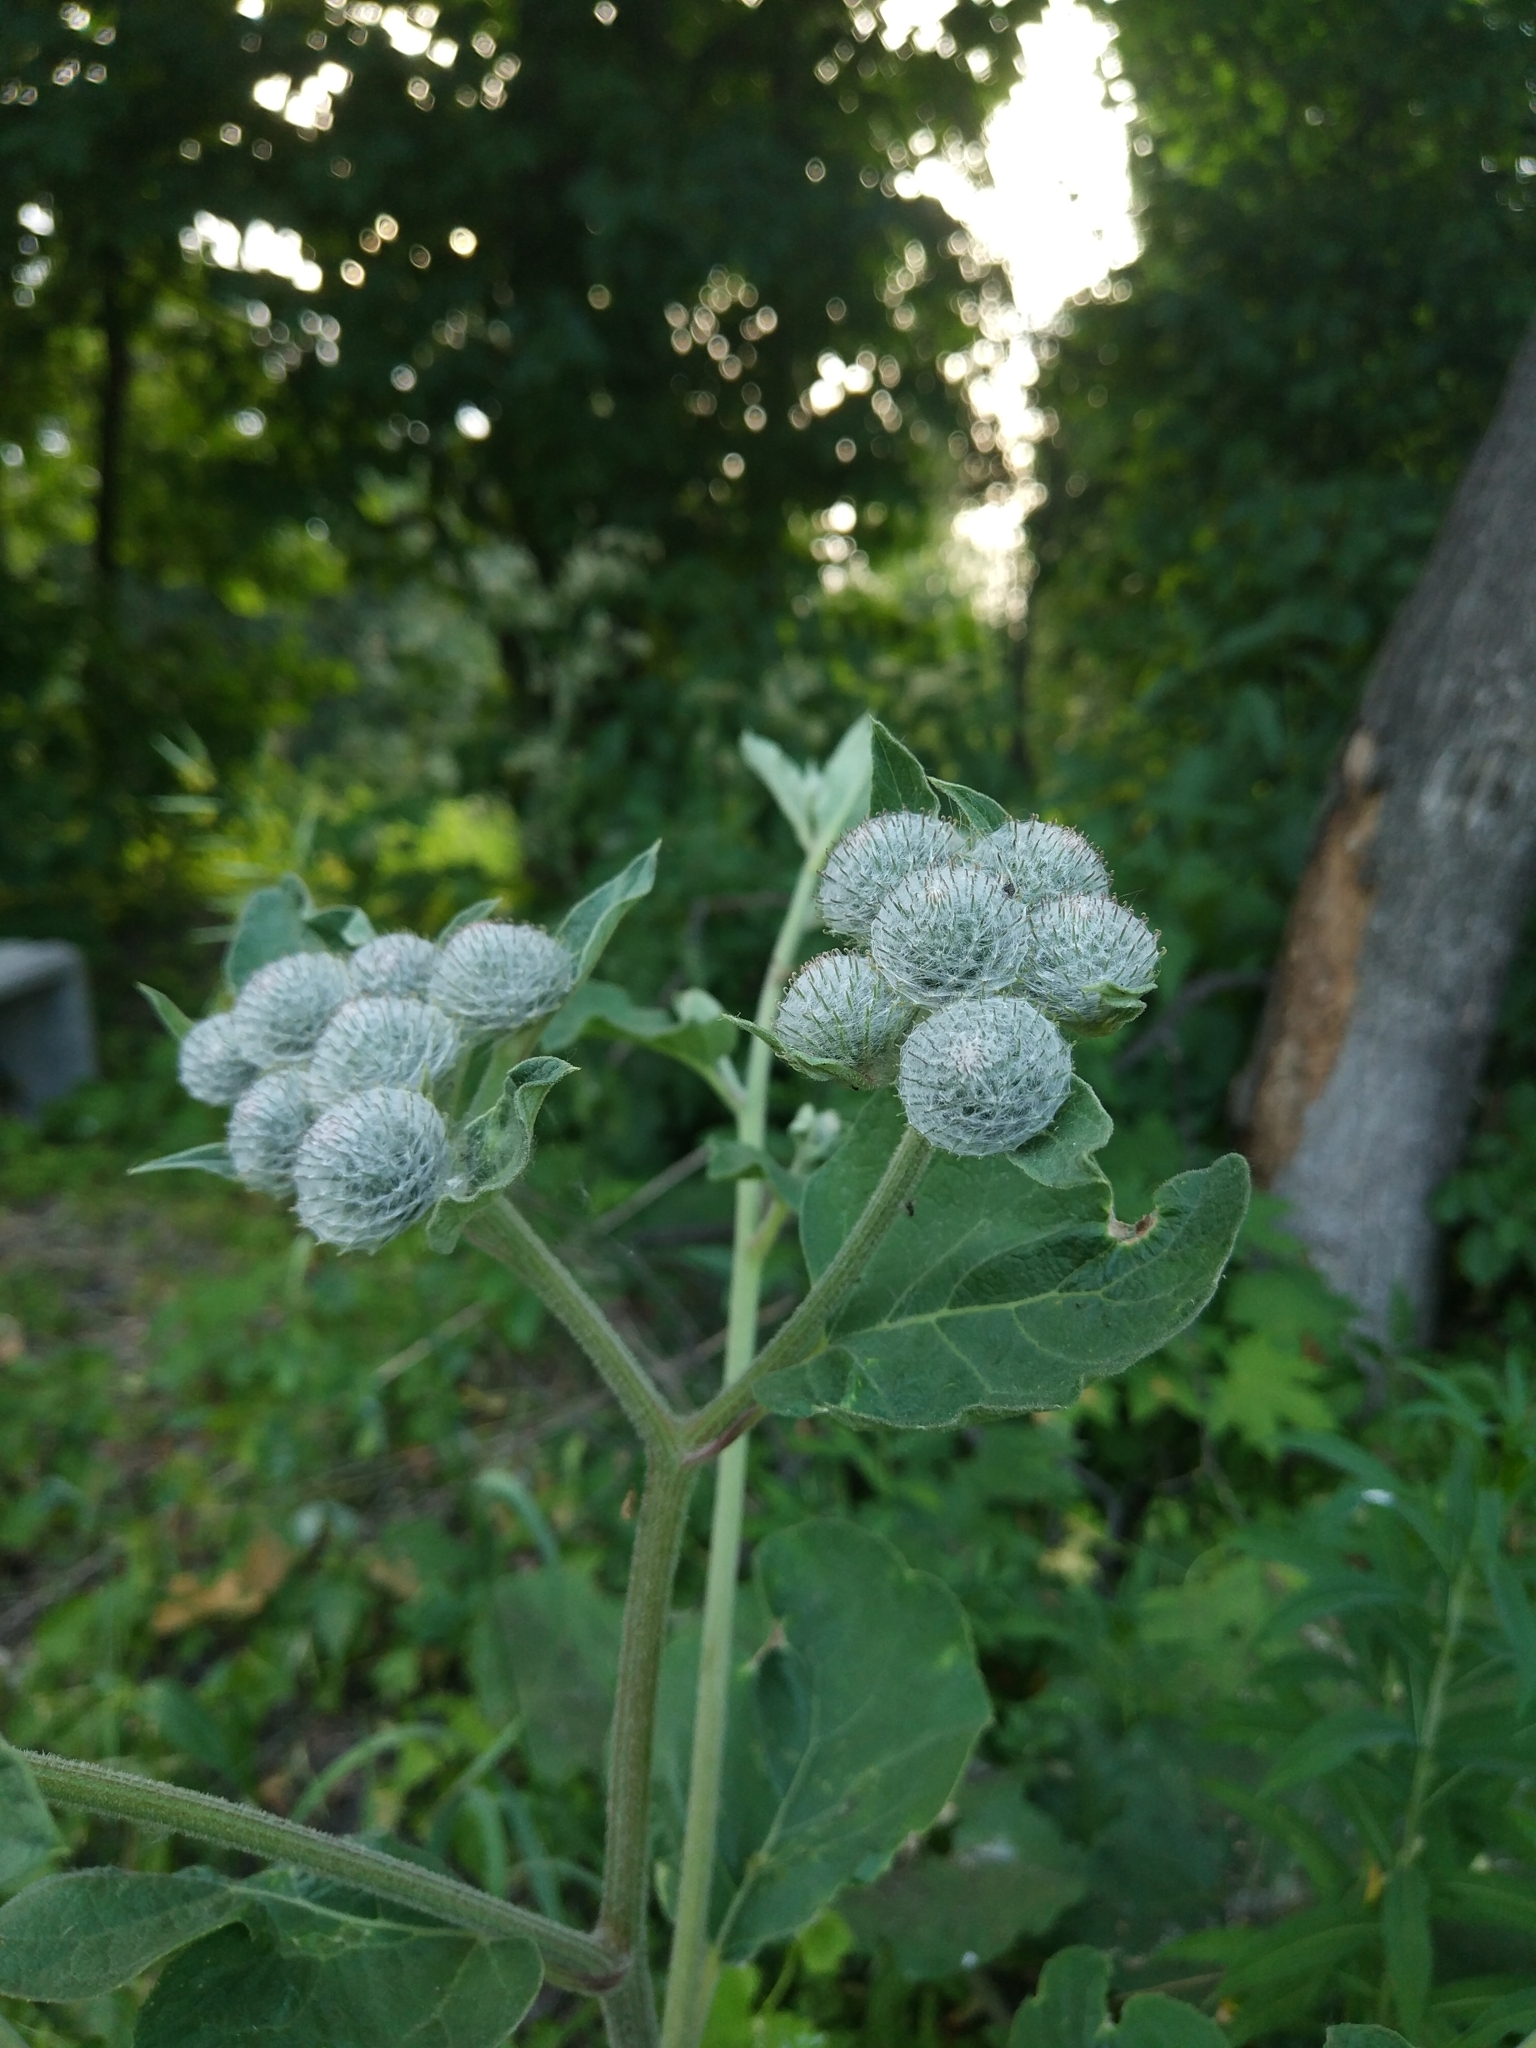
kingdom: Plantae
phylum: Tracheophyta
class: Magnoliopsida
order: Asterales
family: Asteraceae
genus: Arctium
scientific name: Arctium tomentosum
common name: Woolly burdock
